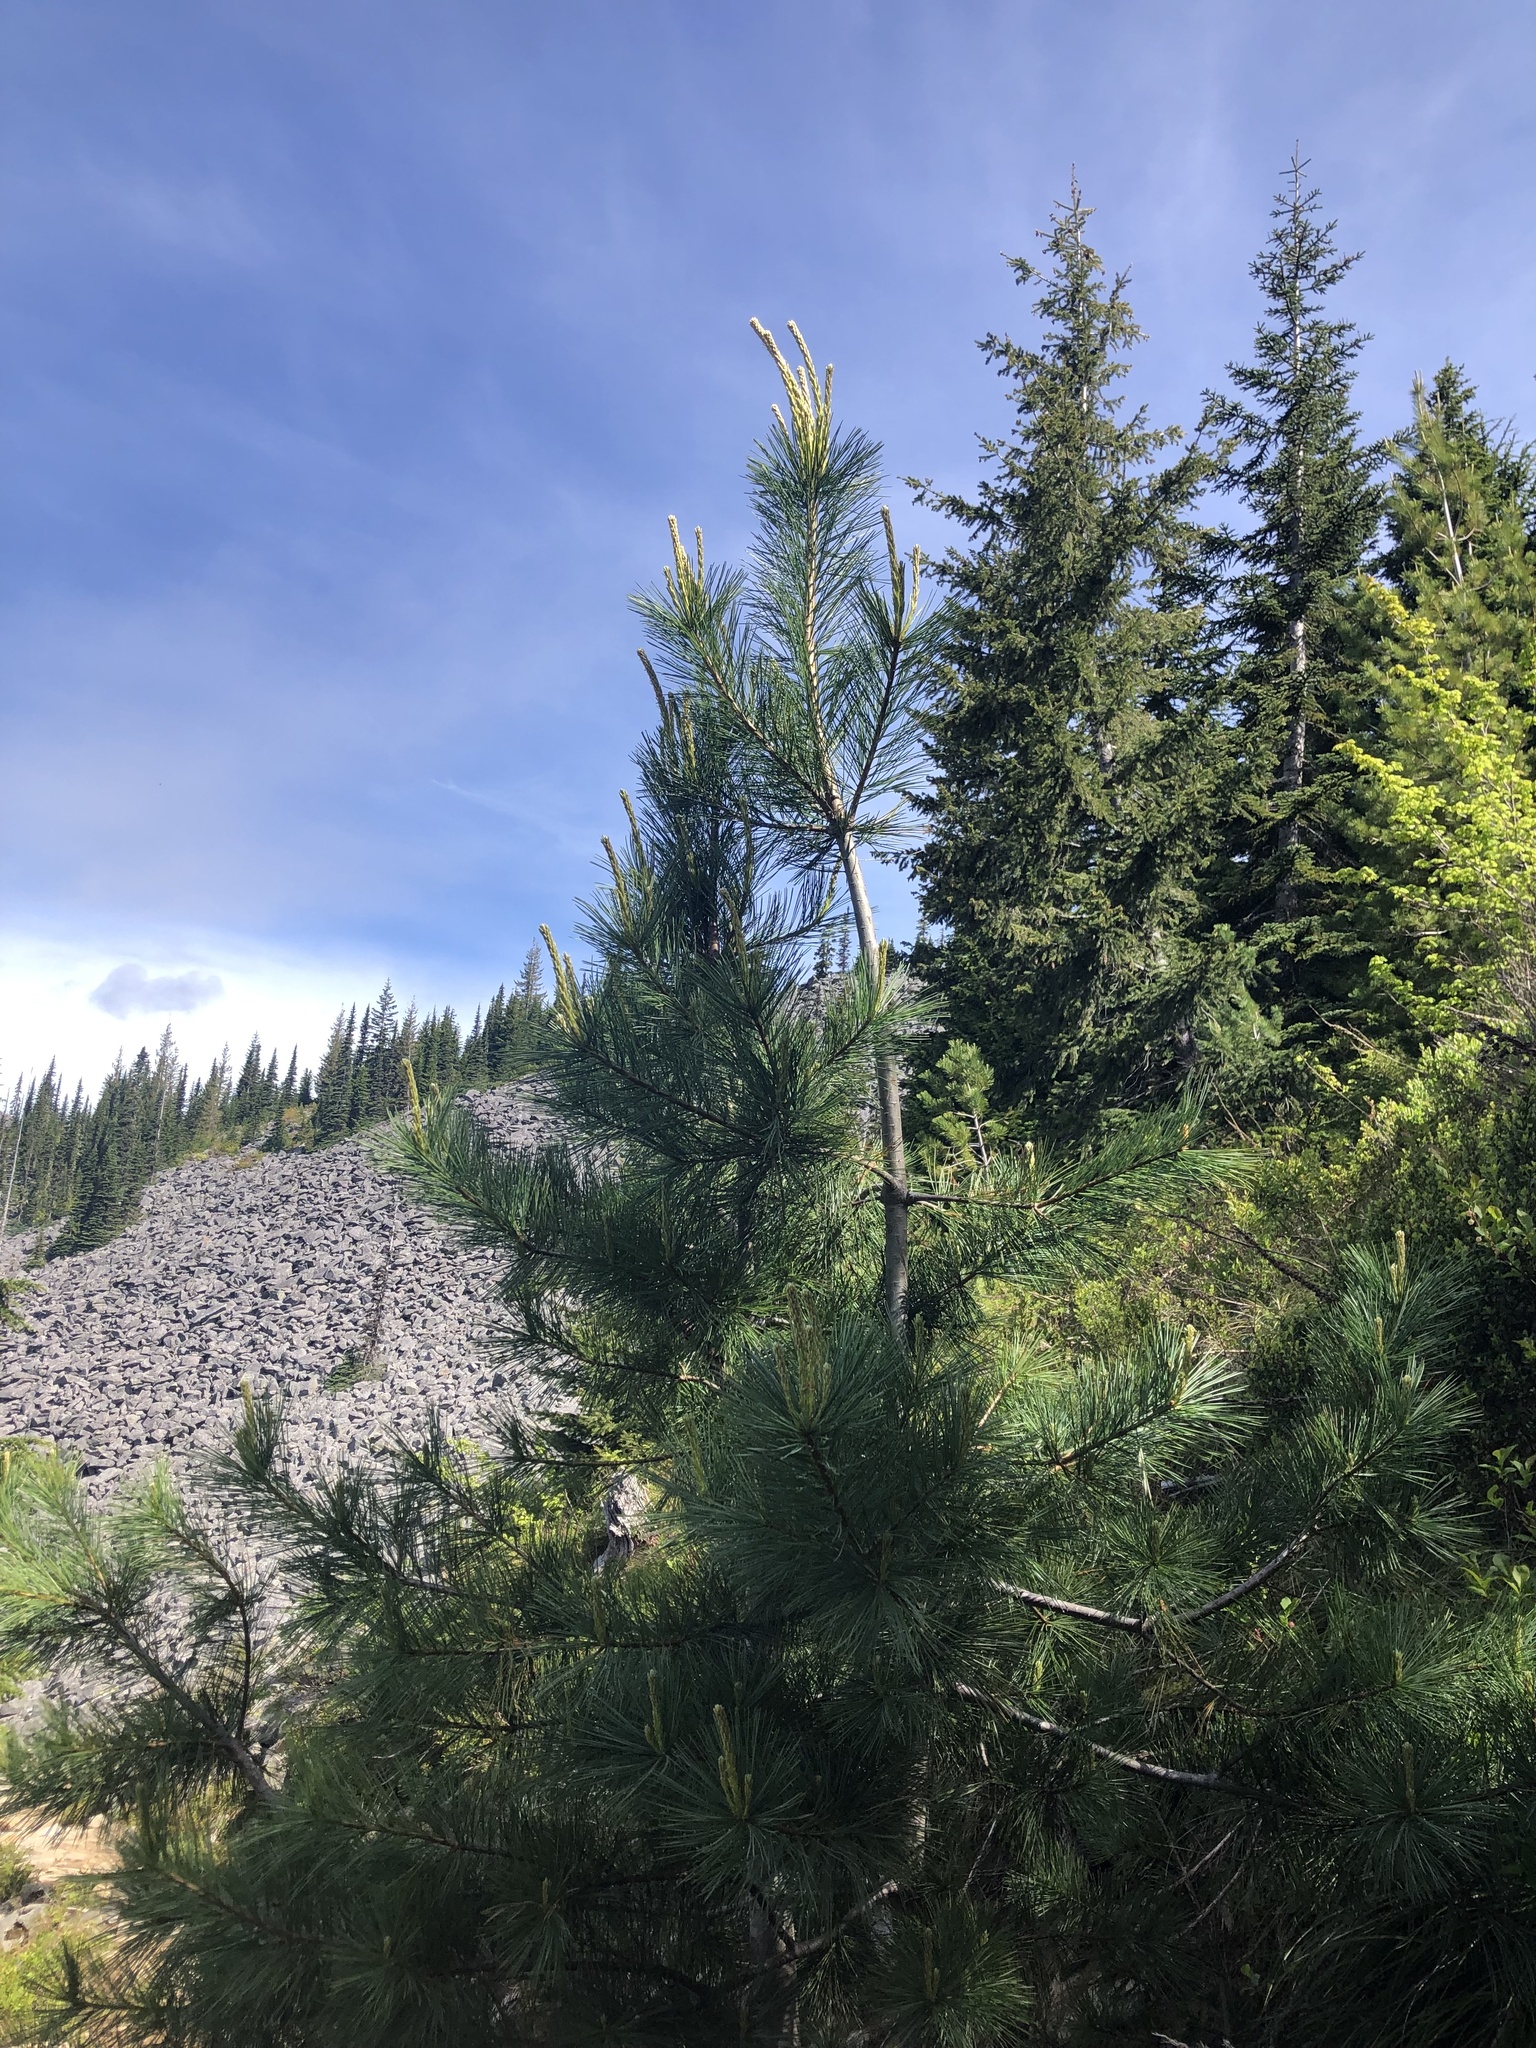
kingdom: Plantae
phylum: Tracheophyta
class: Pinopsida
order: Pinales
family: Pinaceae
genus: Pinus
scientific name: Pinus monticola
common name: Western white pine
